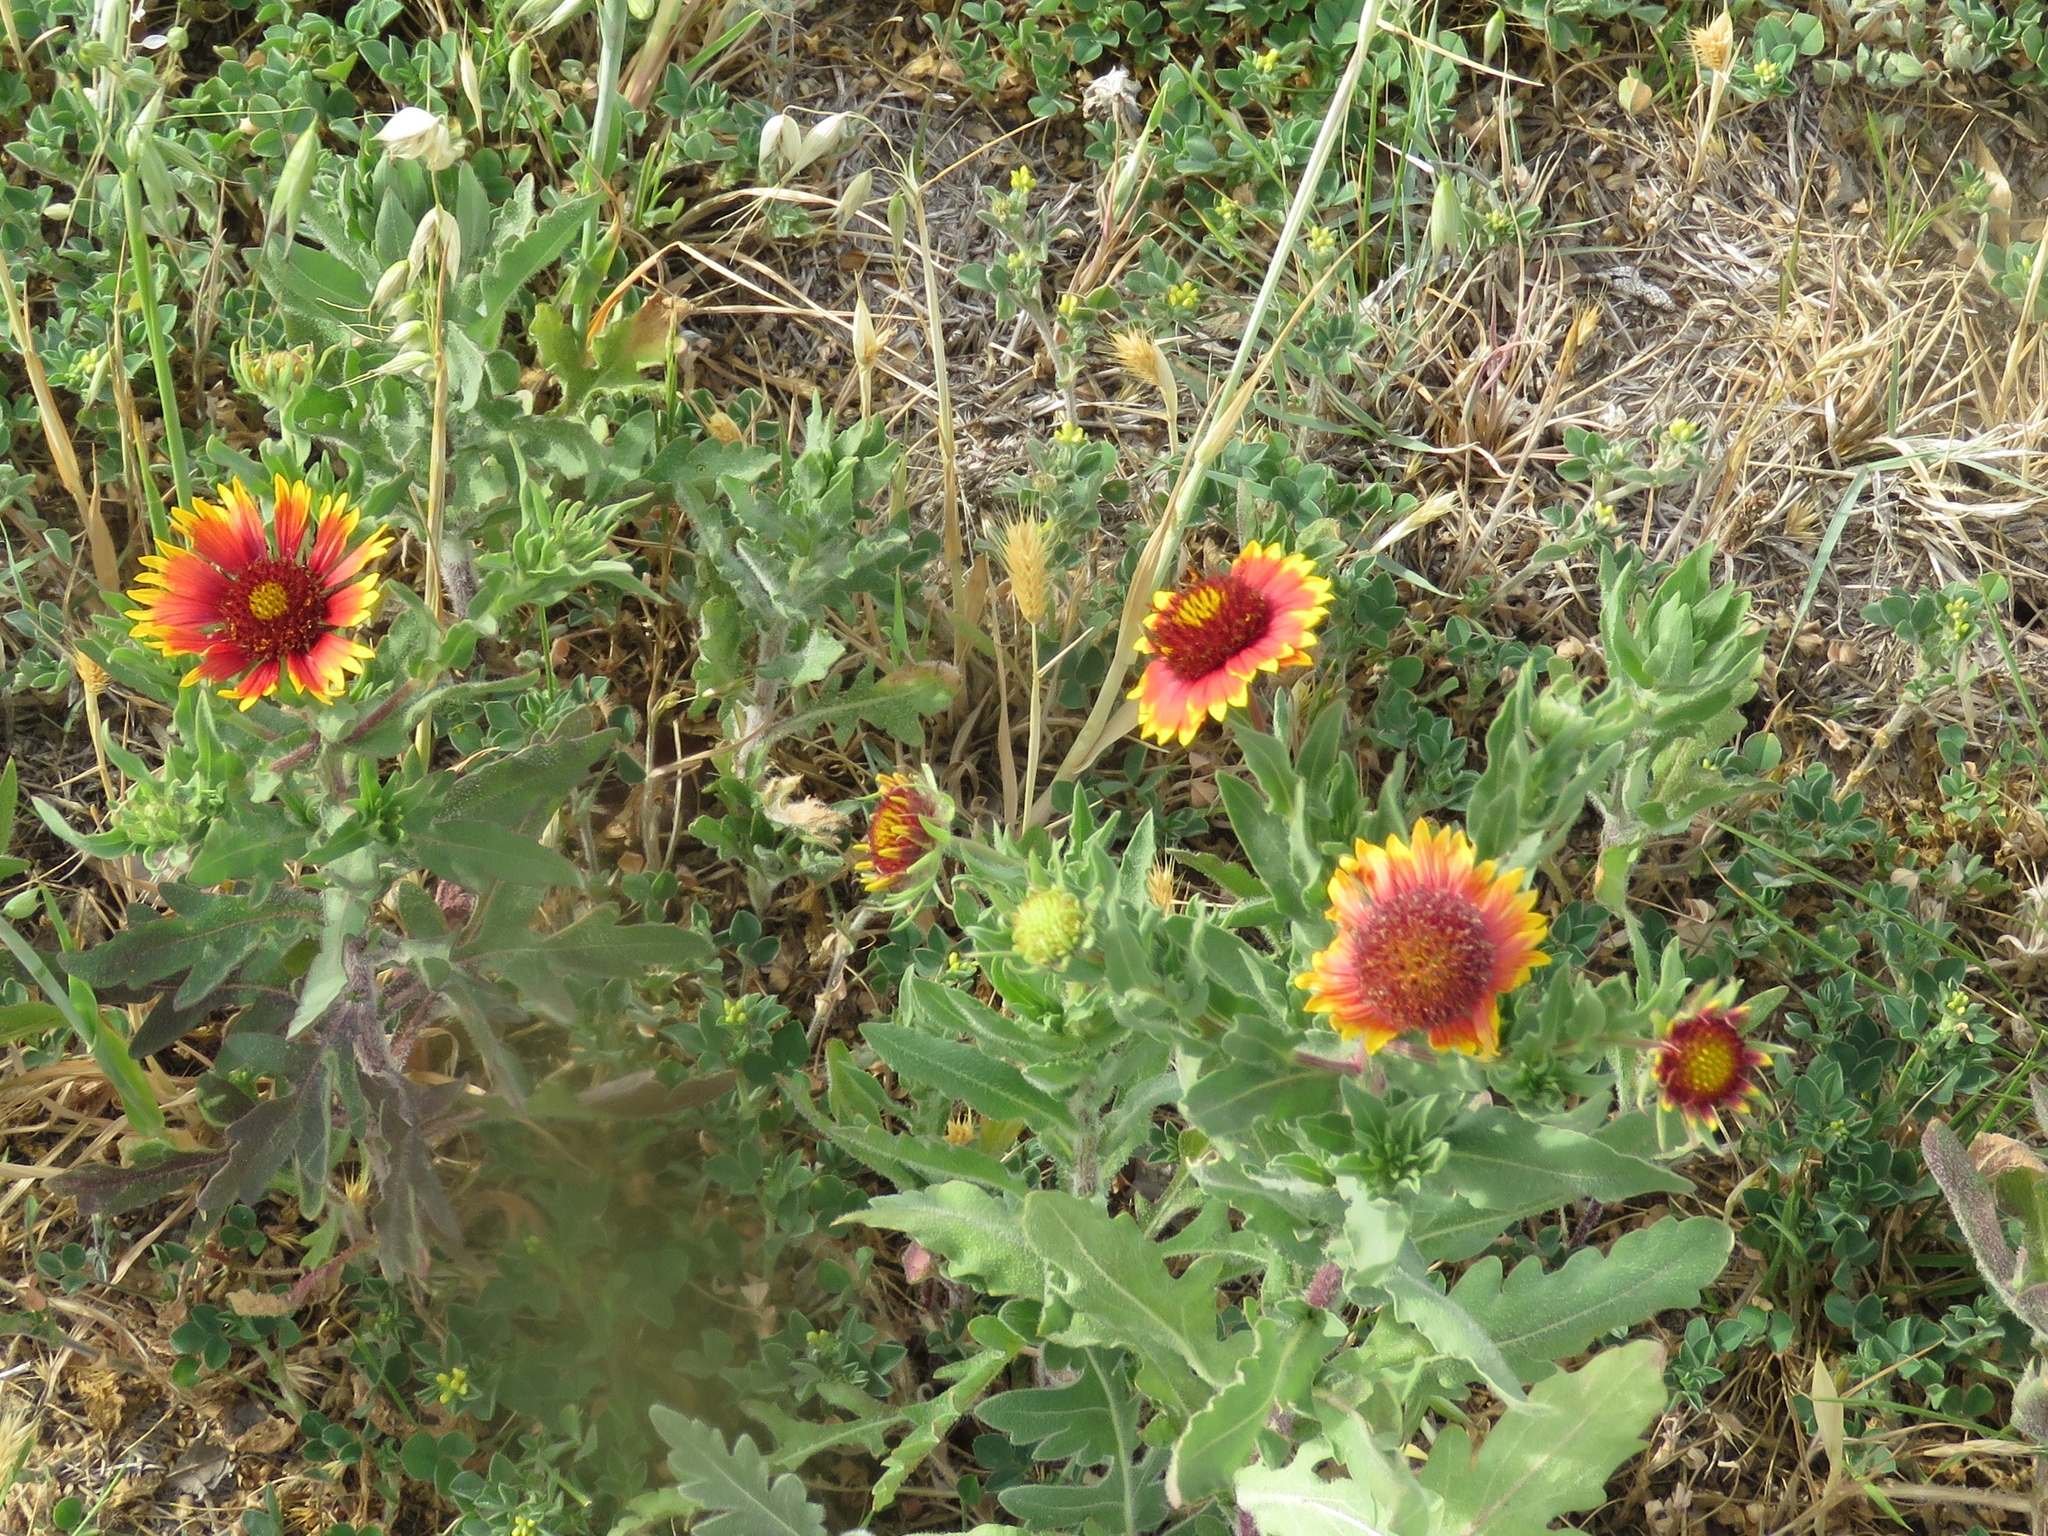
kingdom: Plantae
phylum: Tracheophyta
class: Magnoliopsida
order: Asterales
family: Asteraceae
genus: Gaillardia
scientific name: Gaillardia pulchella
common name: Firewheel
